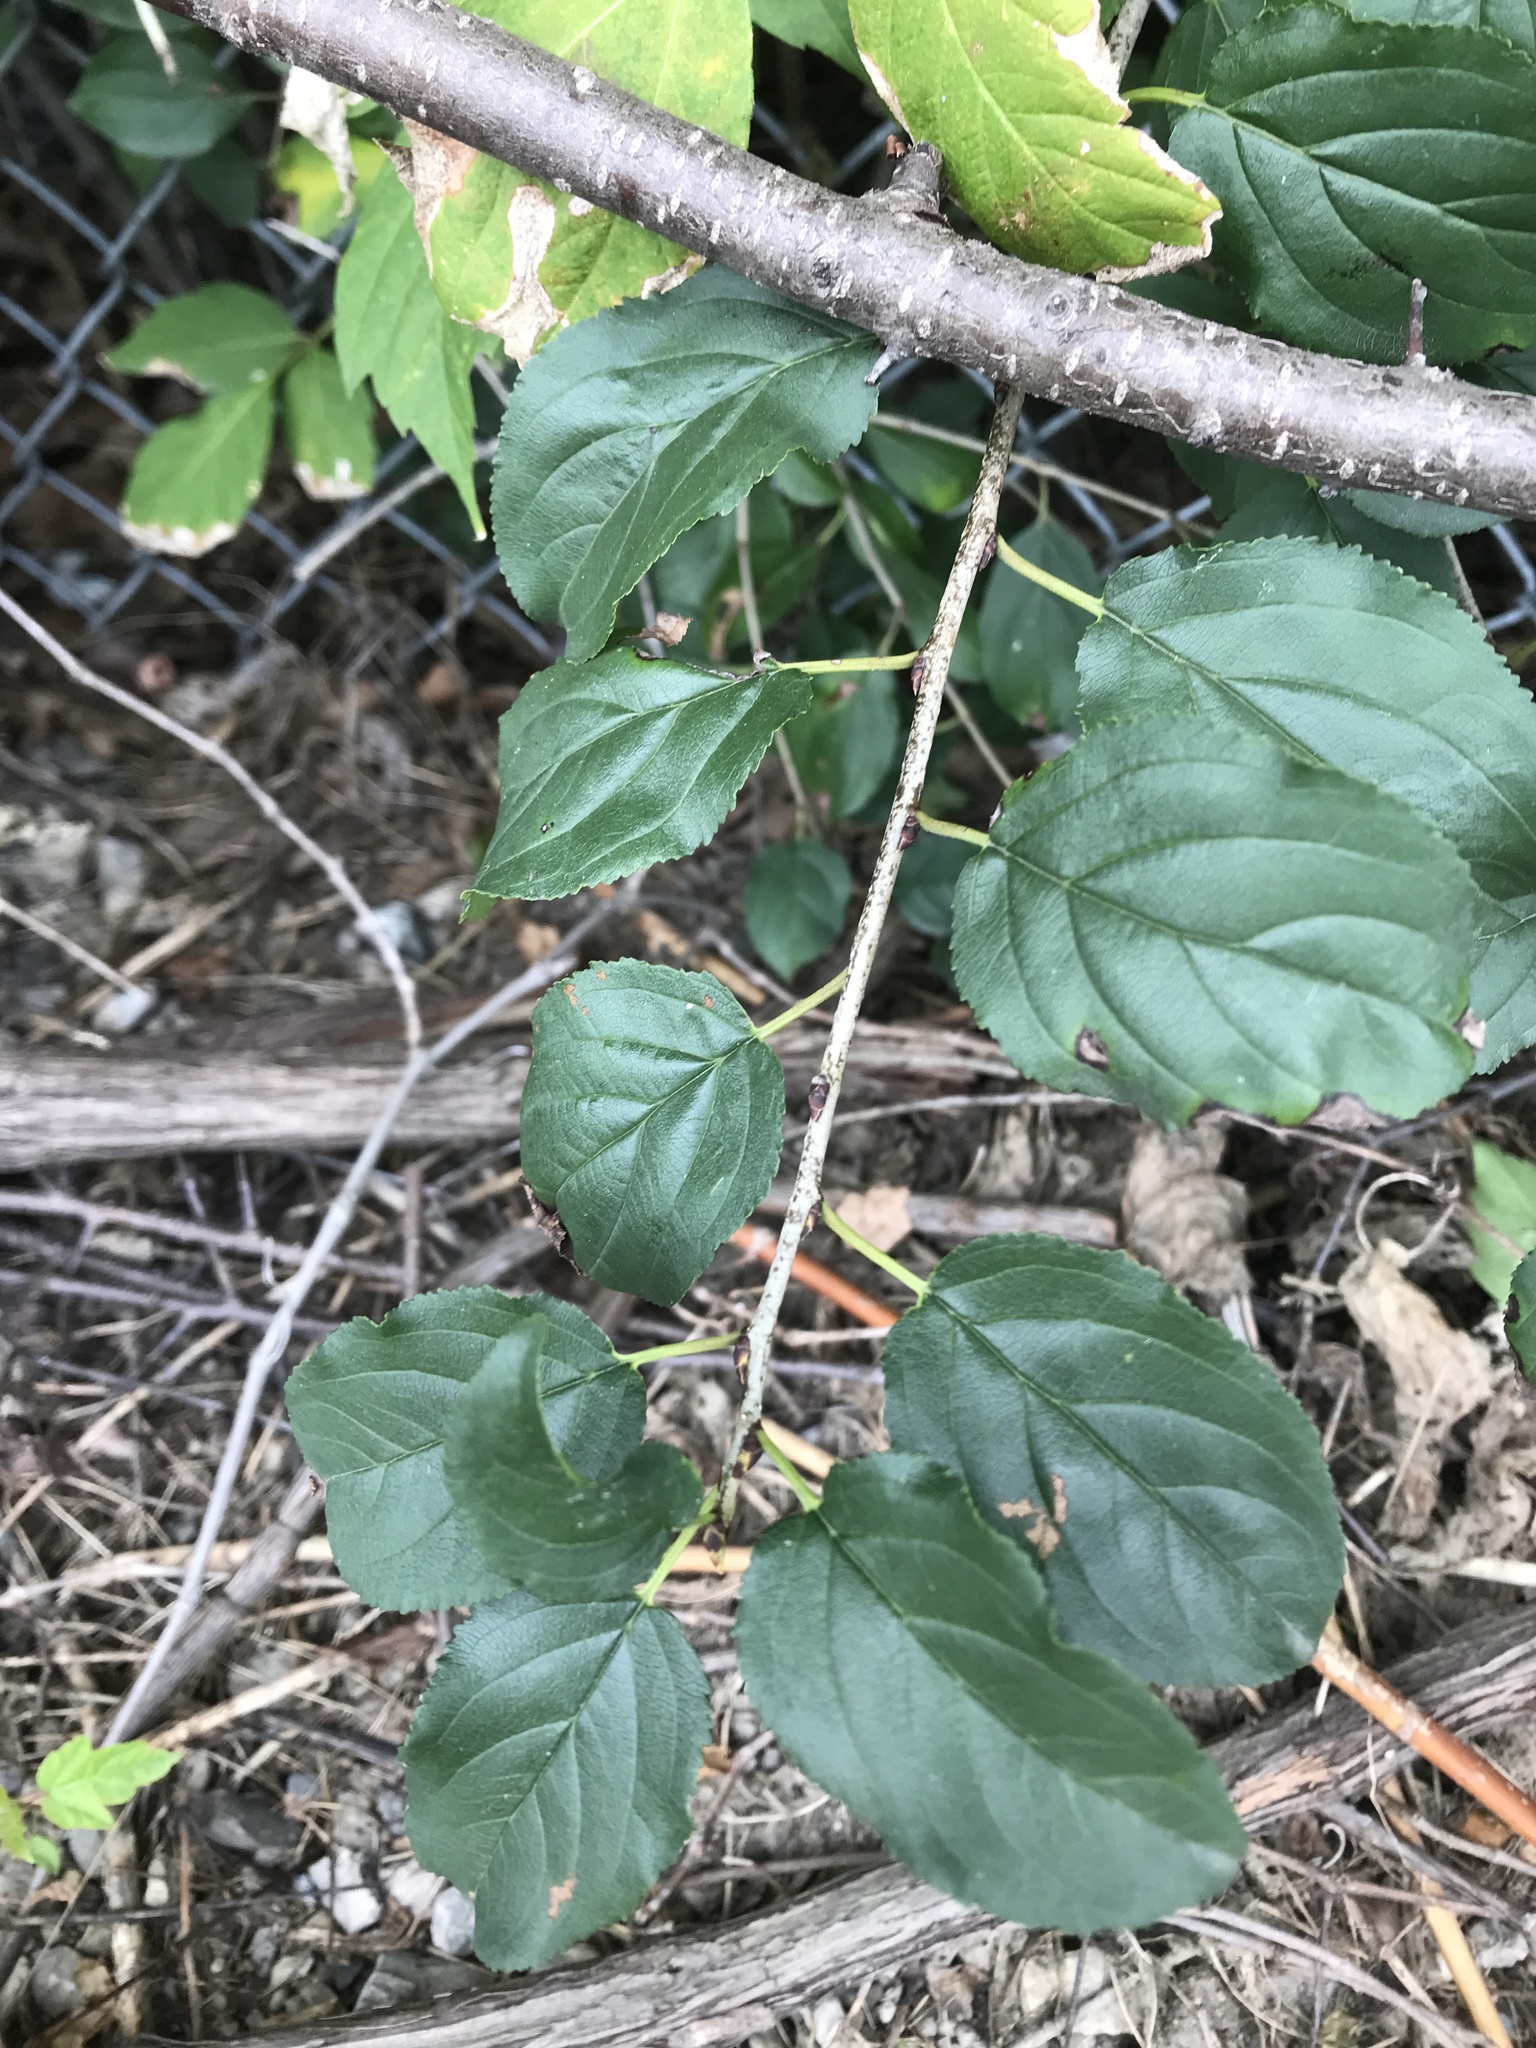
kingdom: Plantae
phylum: Tracheophyta
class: Magnoliopsida
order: Rosales
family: Rhamnaceae
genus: Rhamnus
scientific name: Rhamnus cathartica
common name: Common buckthorn
